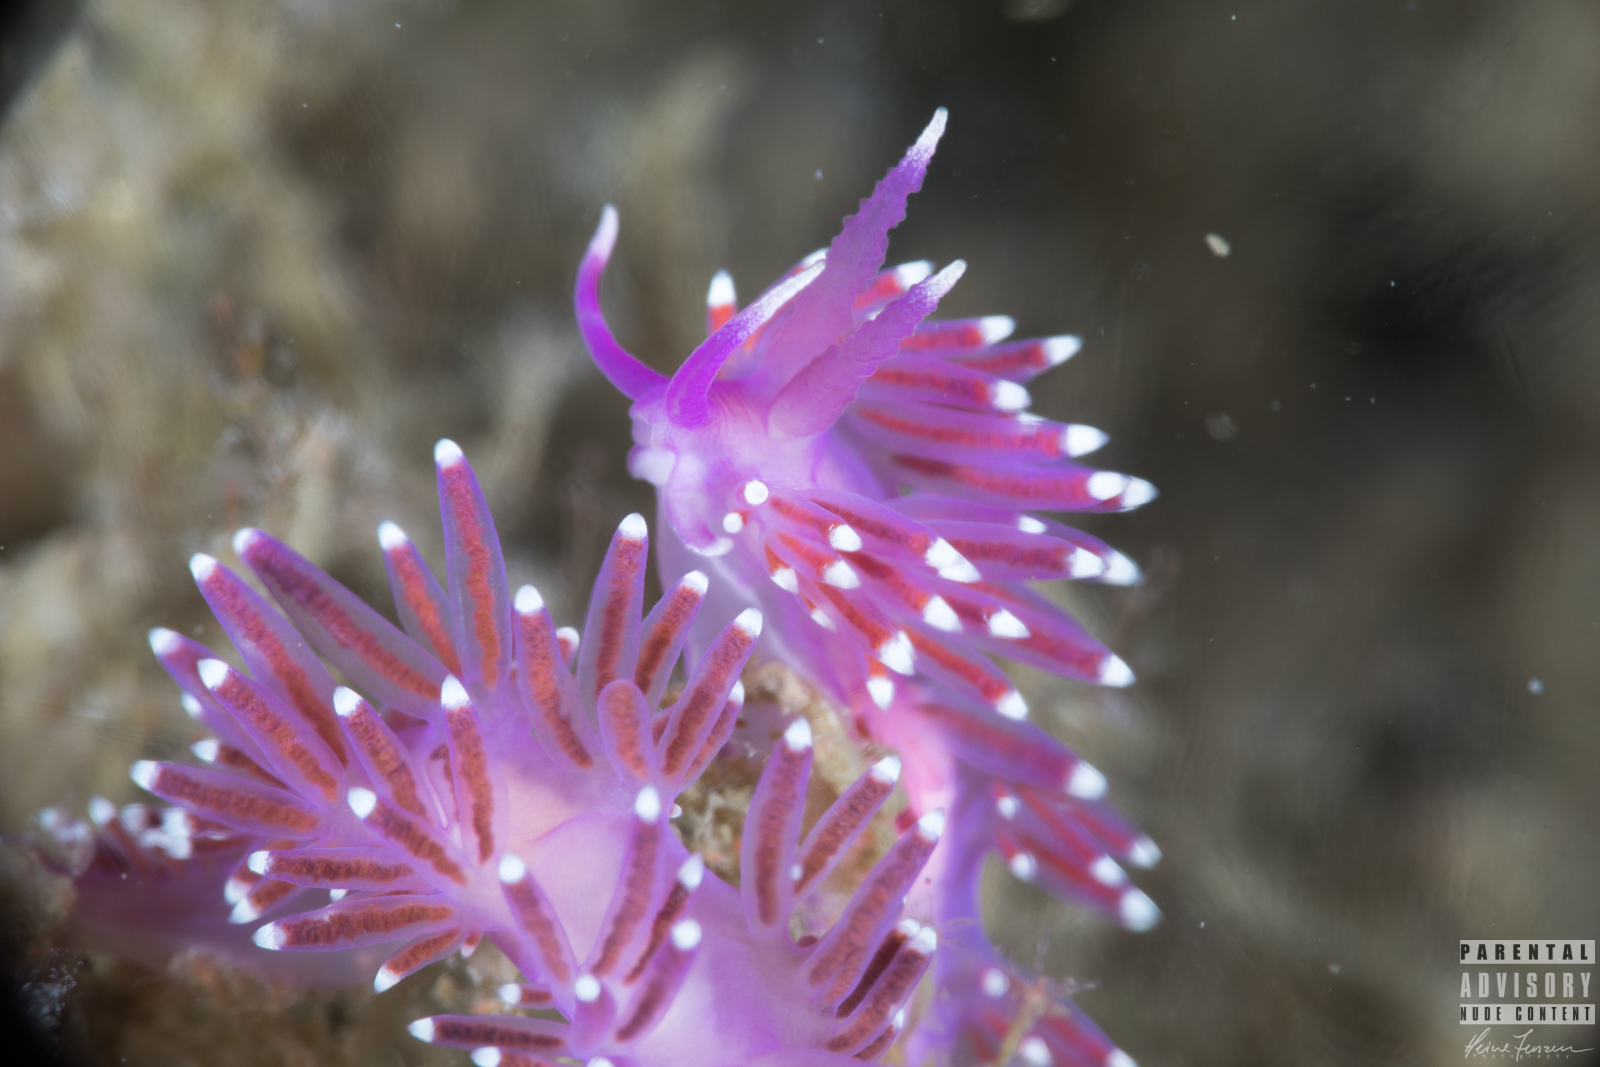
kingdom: Animalia
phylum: Mollusca
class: Gastropoda
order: Nudibranchia
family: Flabellinidae
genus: Edmundsella
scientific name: Edmundsella pedata
